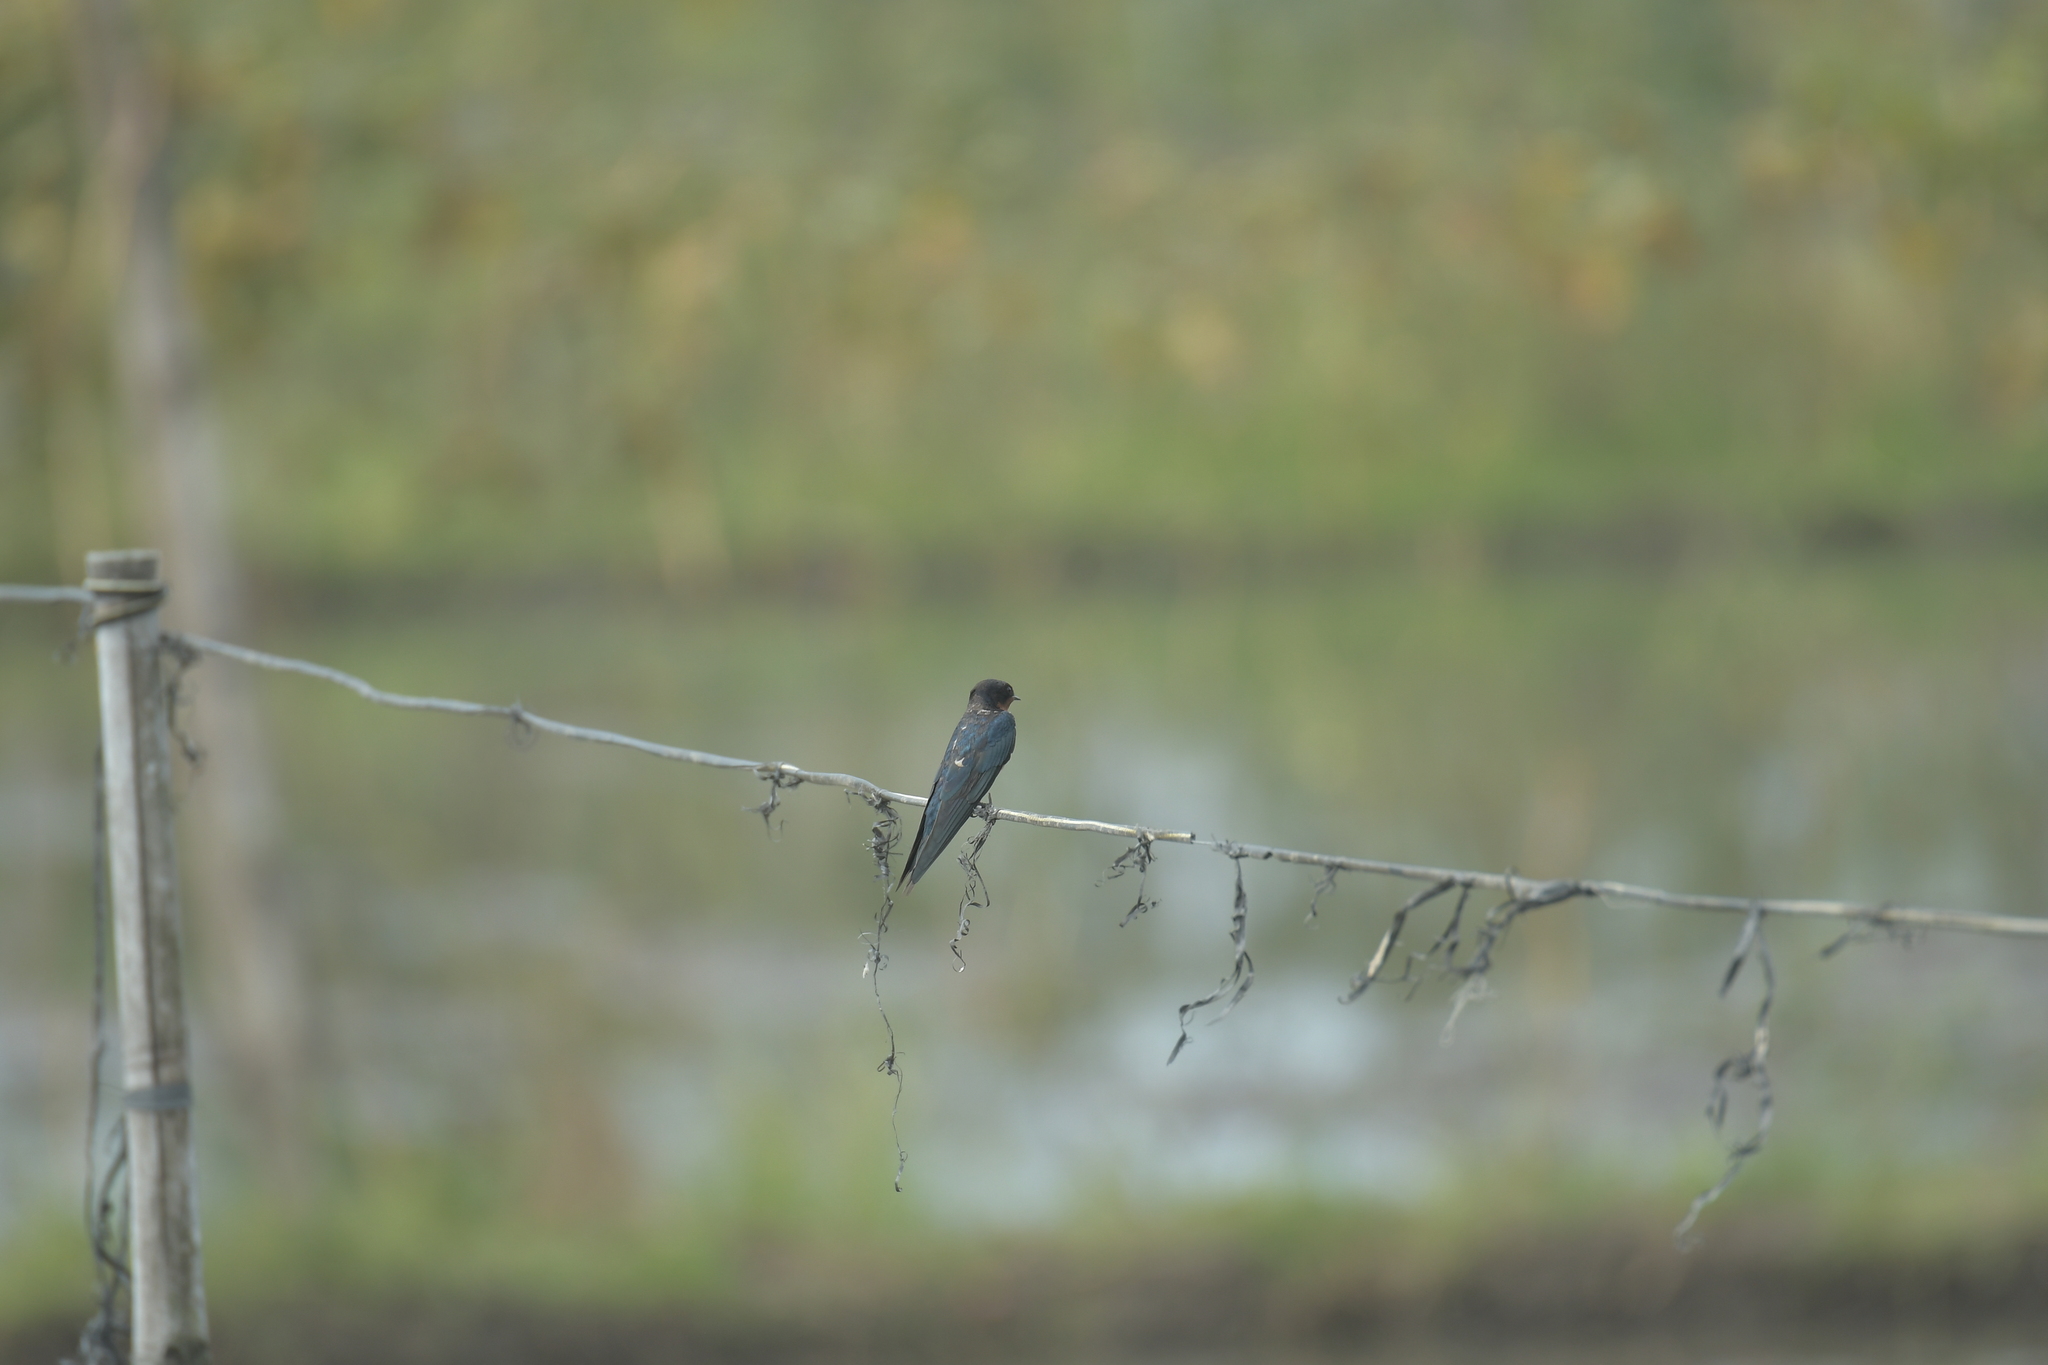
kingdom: Animalia
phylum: Chordata
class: Aves
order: Passeriformes
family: Hirundinidae
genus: Hirundo
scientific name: Hirundo rustica
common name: Barn swallow
